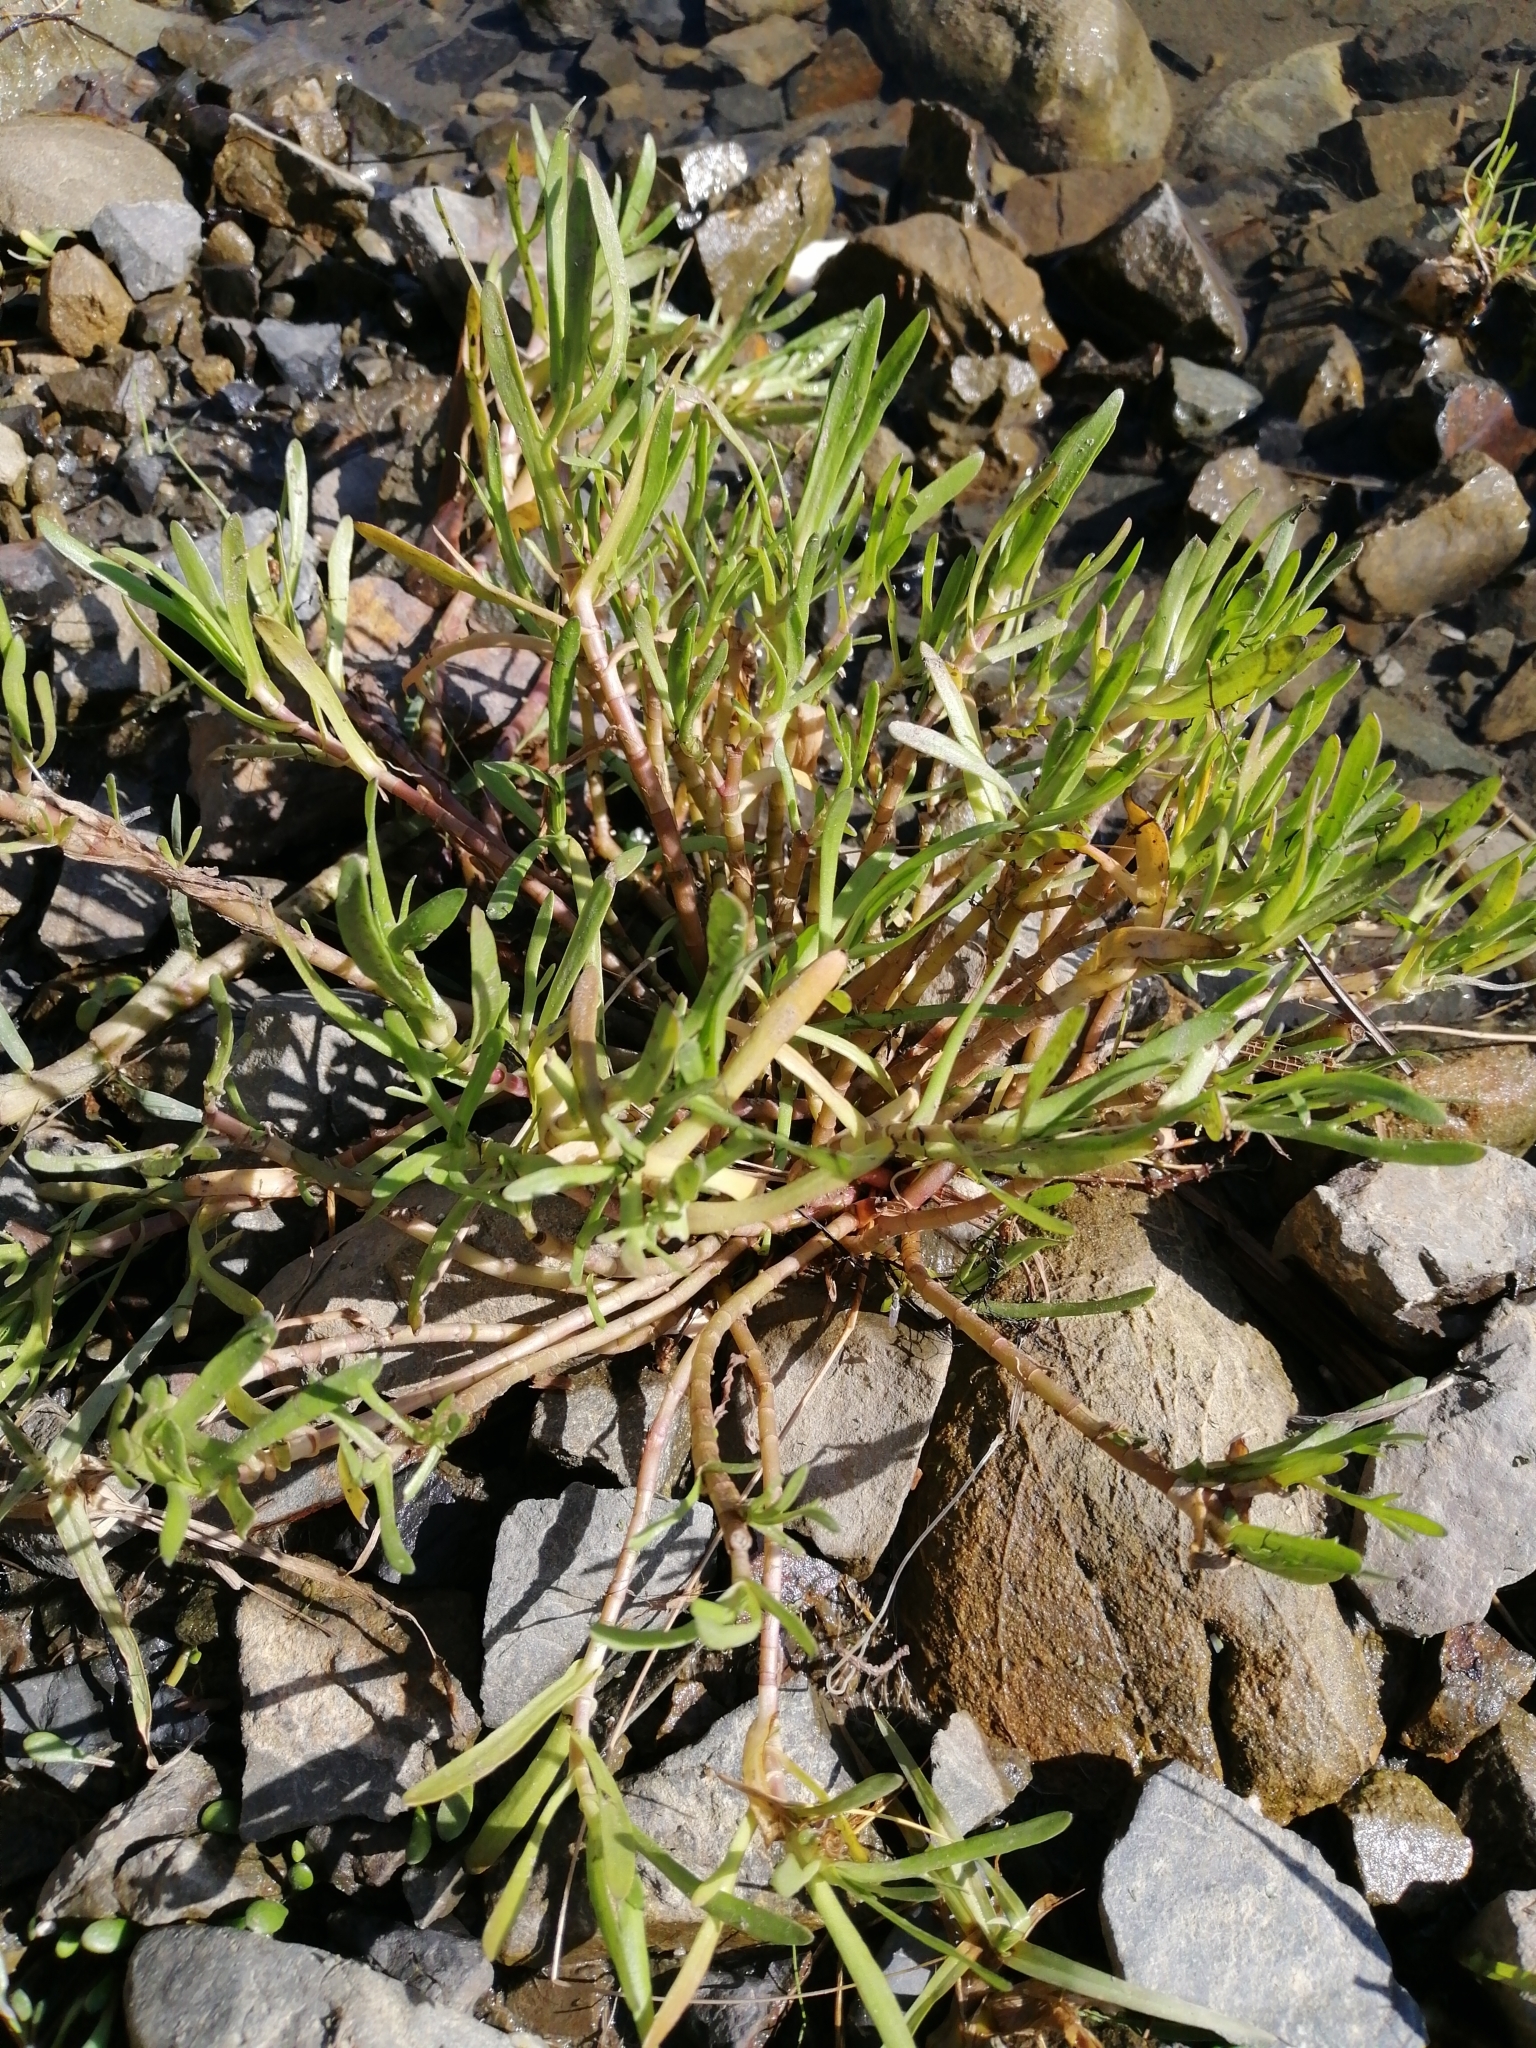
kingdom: Plantae
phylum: Tracheophyta
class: Magnoliopsida
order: Asterales
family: Asteraceae
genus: Cotula
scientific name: Cotula coronopifolia
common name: Buttonweed
